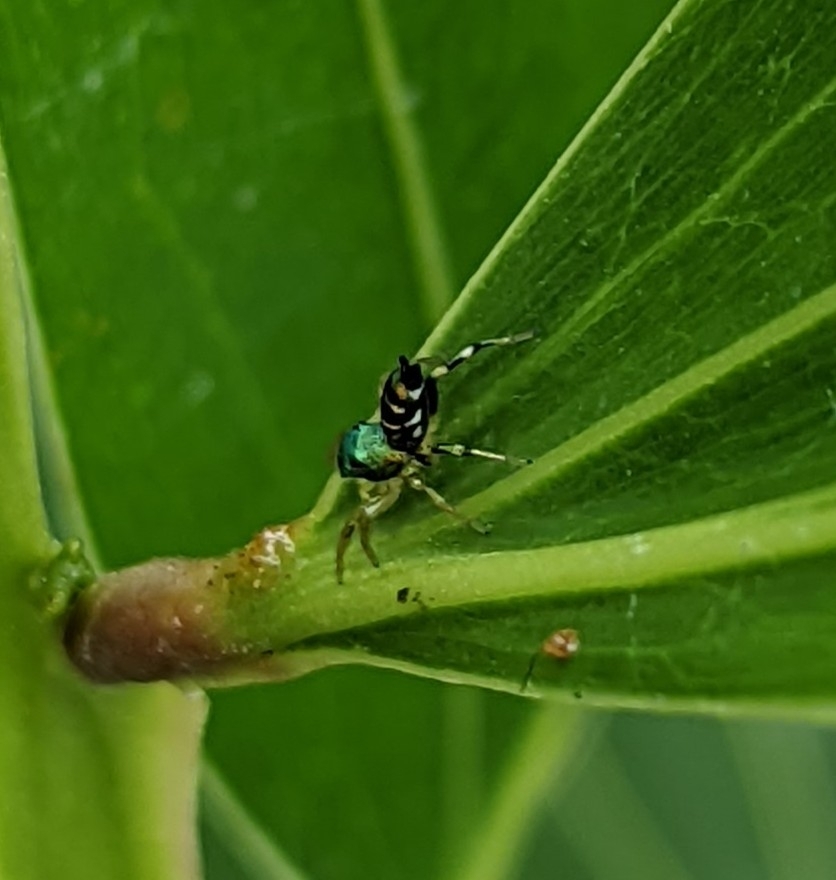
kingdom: Animalia
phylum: Arthropoda
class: Arachnida
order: Araneae
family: Salticidae
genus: Cosmophasis
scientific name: Cosmophasis thalassina
